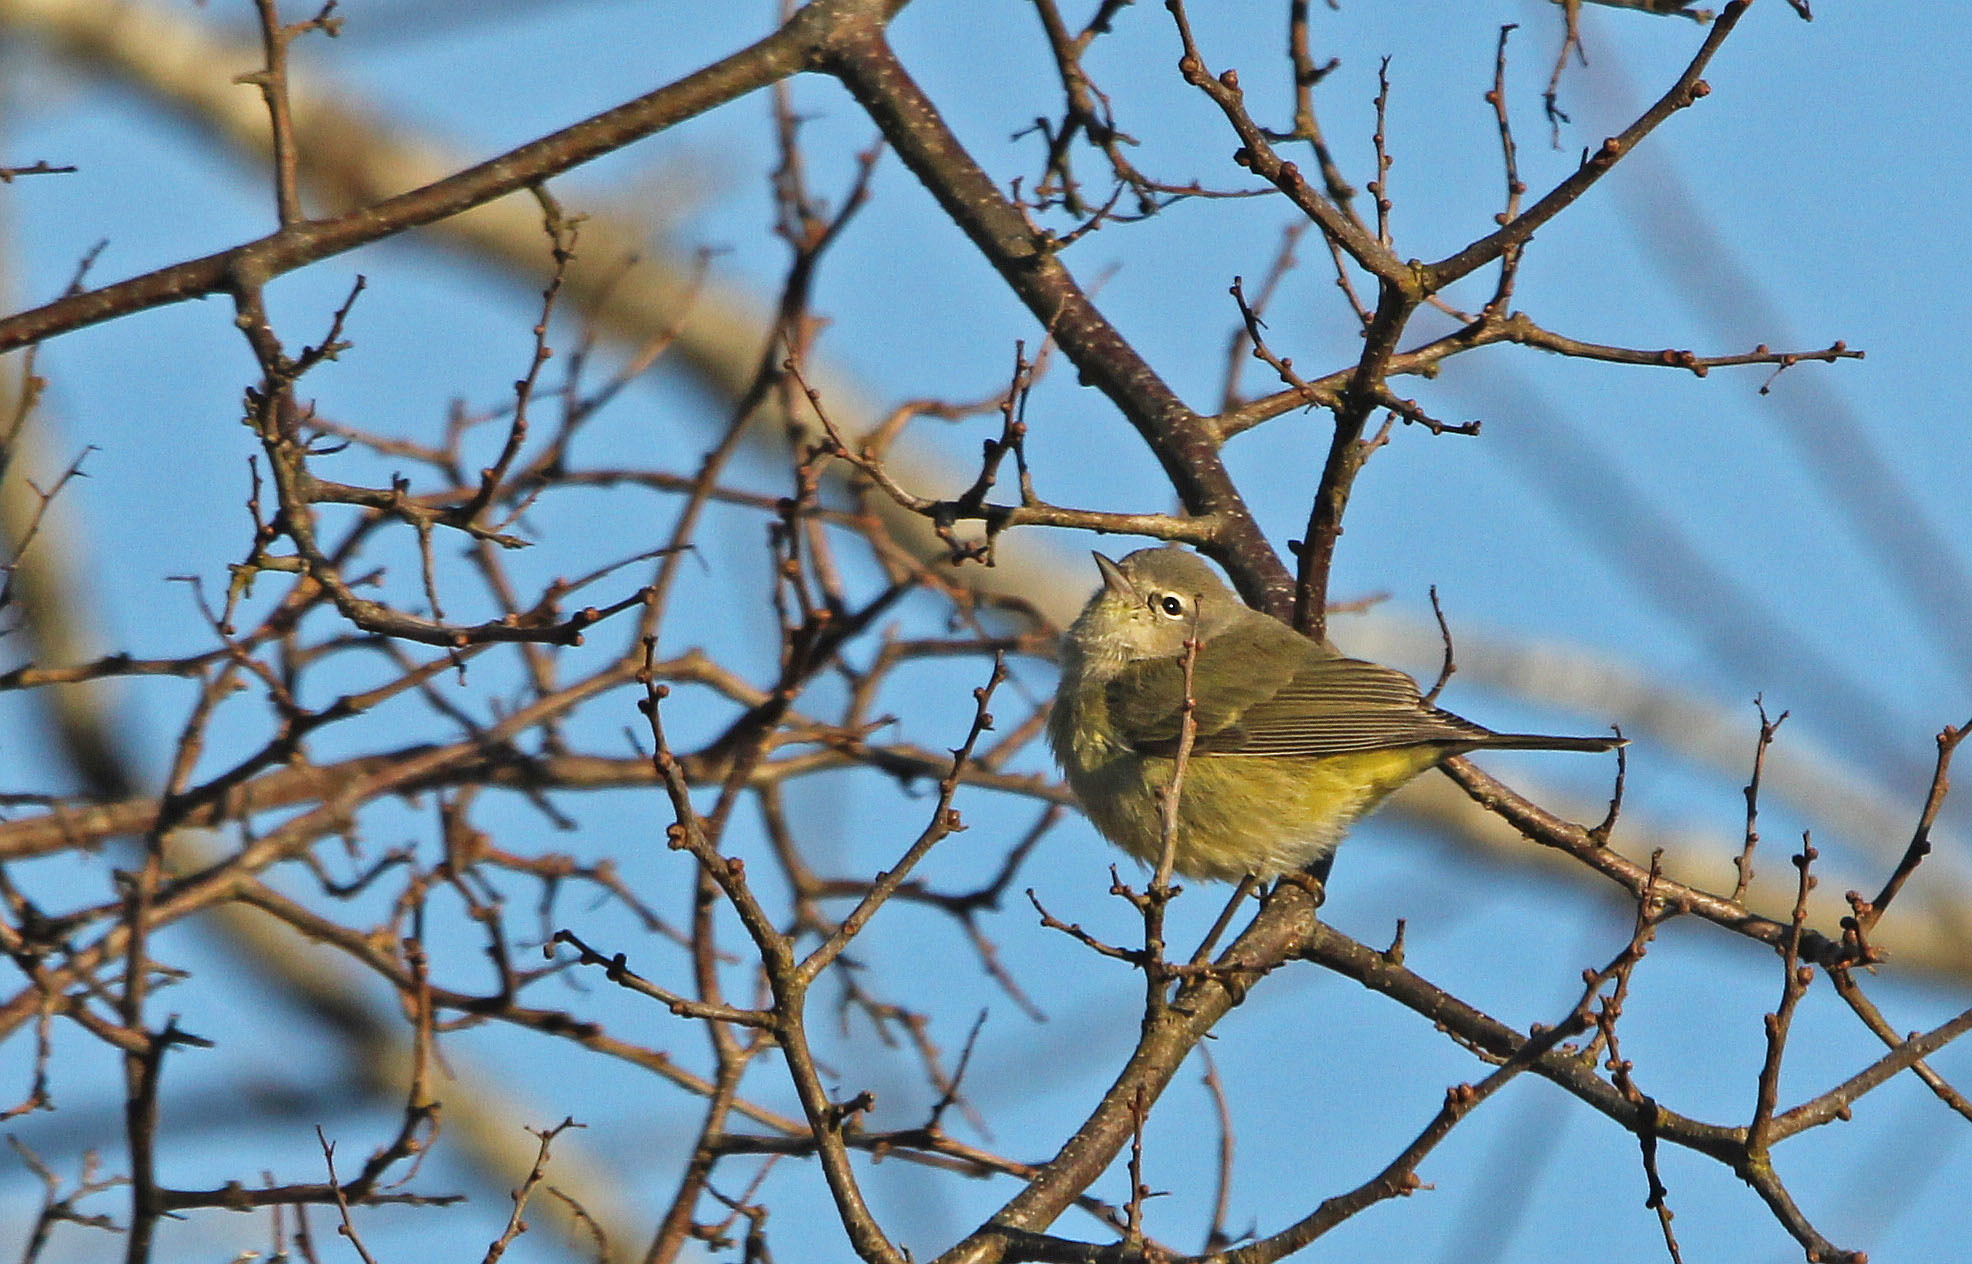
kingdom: Animalia
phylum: Chordata
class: Aves
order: Passeriformes
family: Parulidae
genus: Leiothlypis
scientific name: Leiothlypis celata
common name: Orange-crowned warbler
